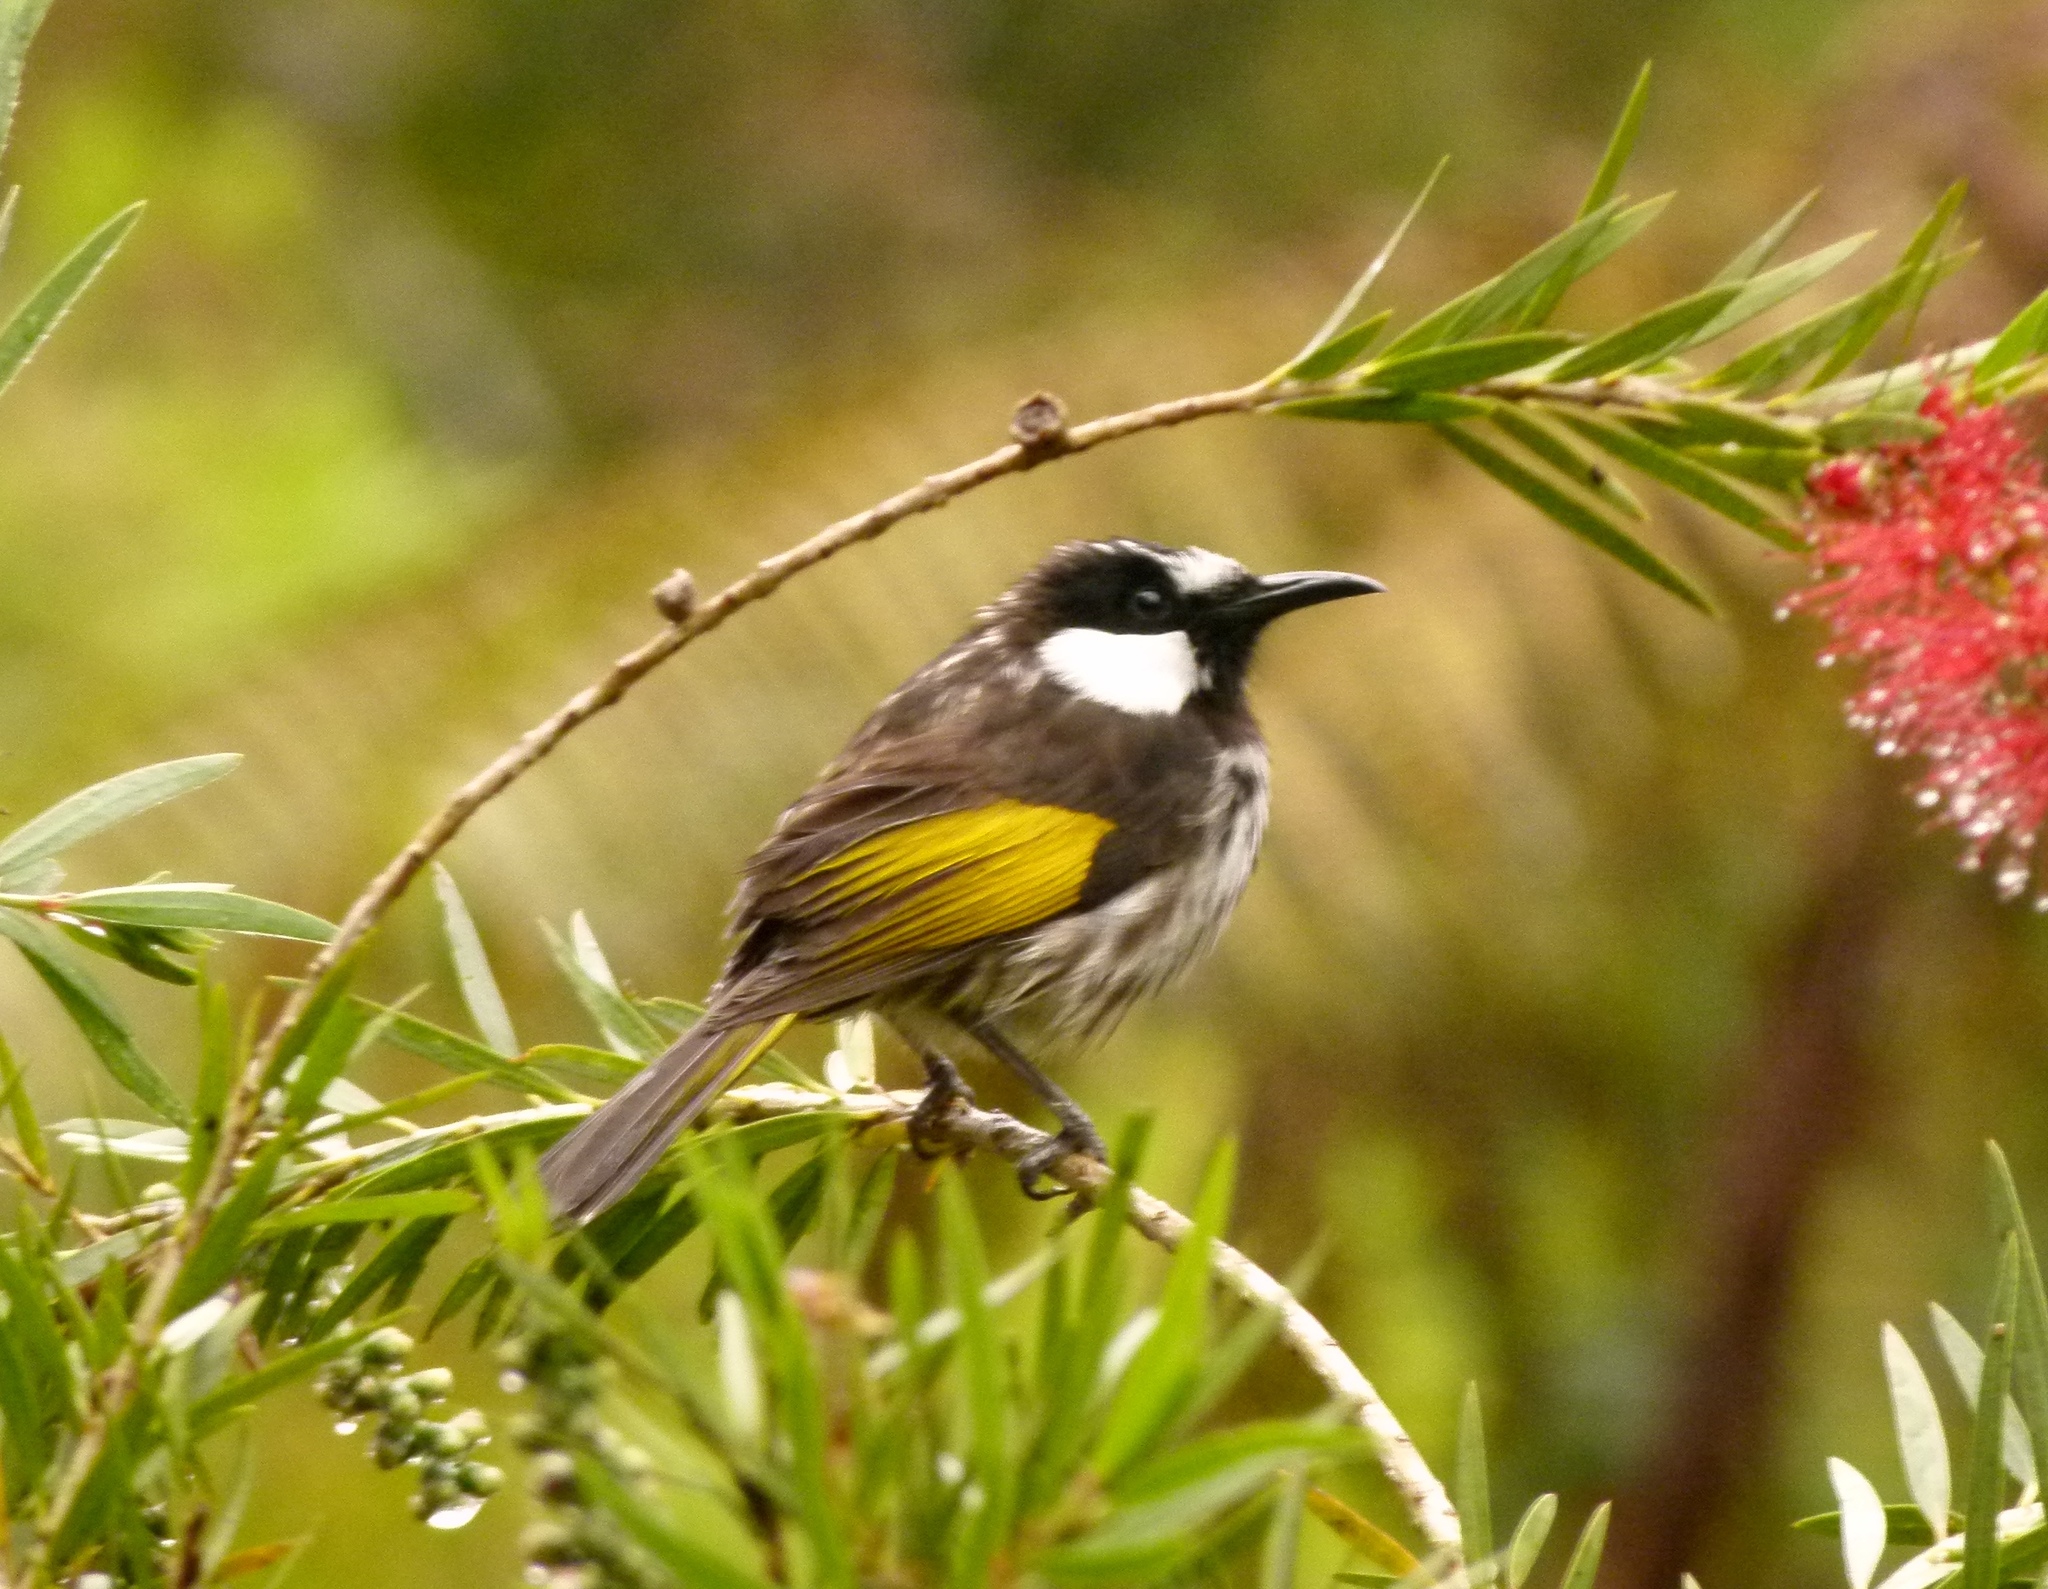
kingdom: Animalia
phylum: Chordata
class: Aves
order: Passeriformes
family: Meliphagidae
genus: Phylidonyris
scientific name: Phylidonyris niger
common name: White-cheeked honeyeater
